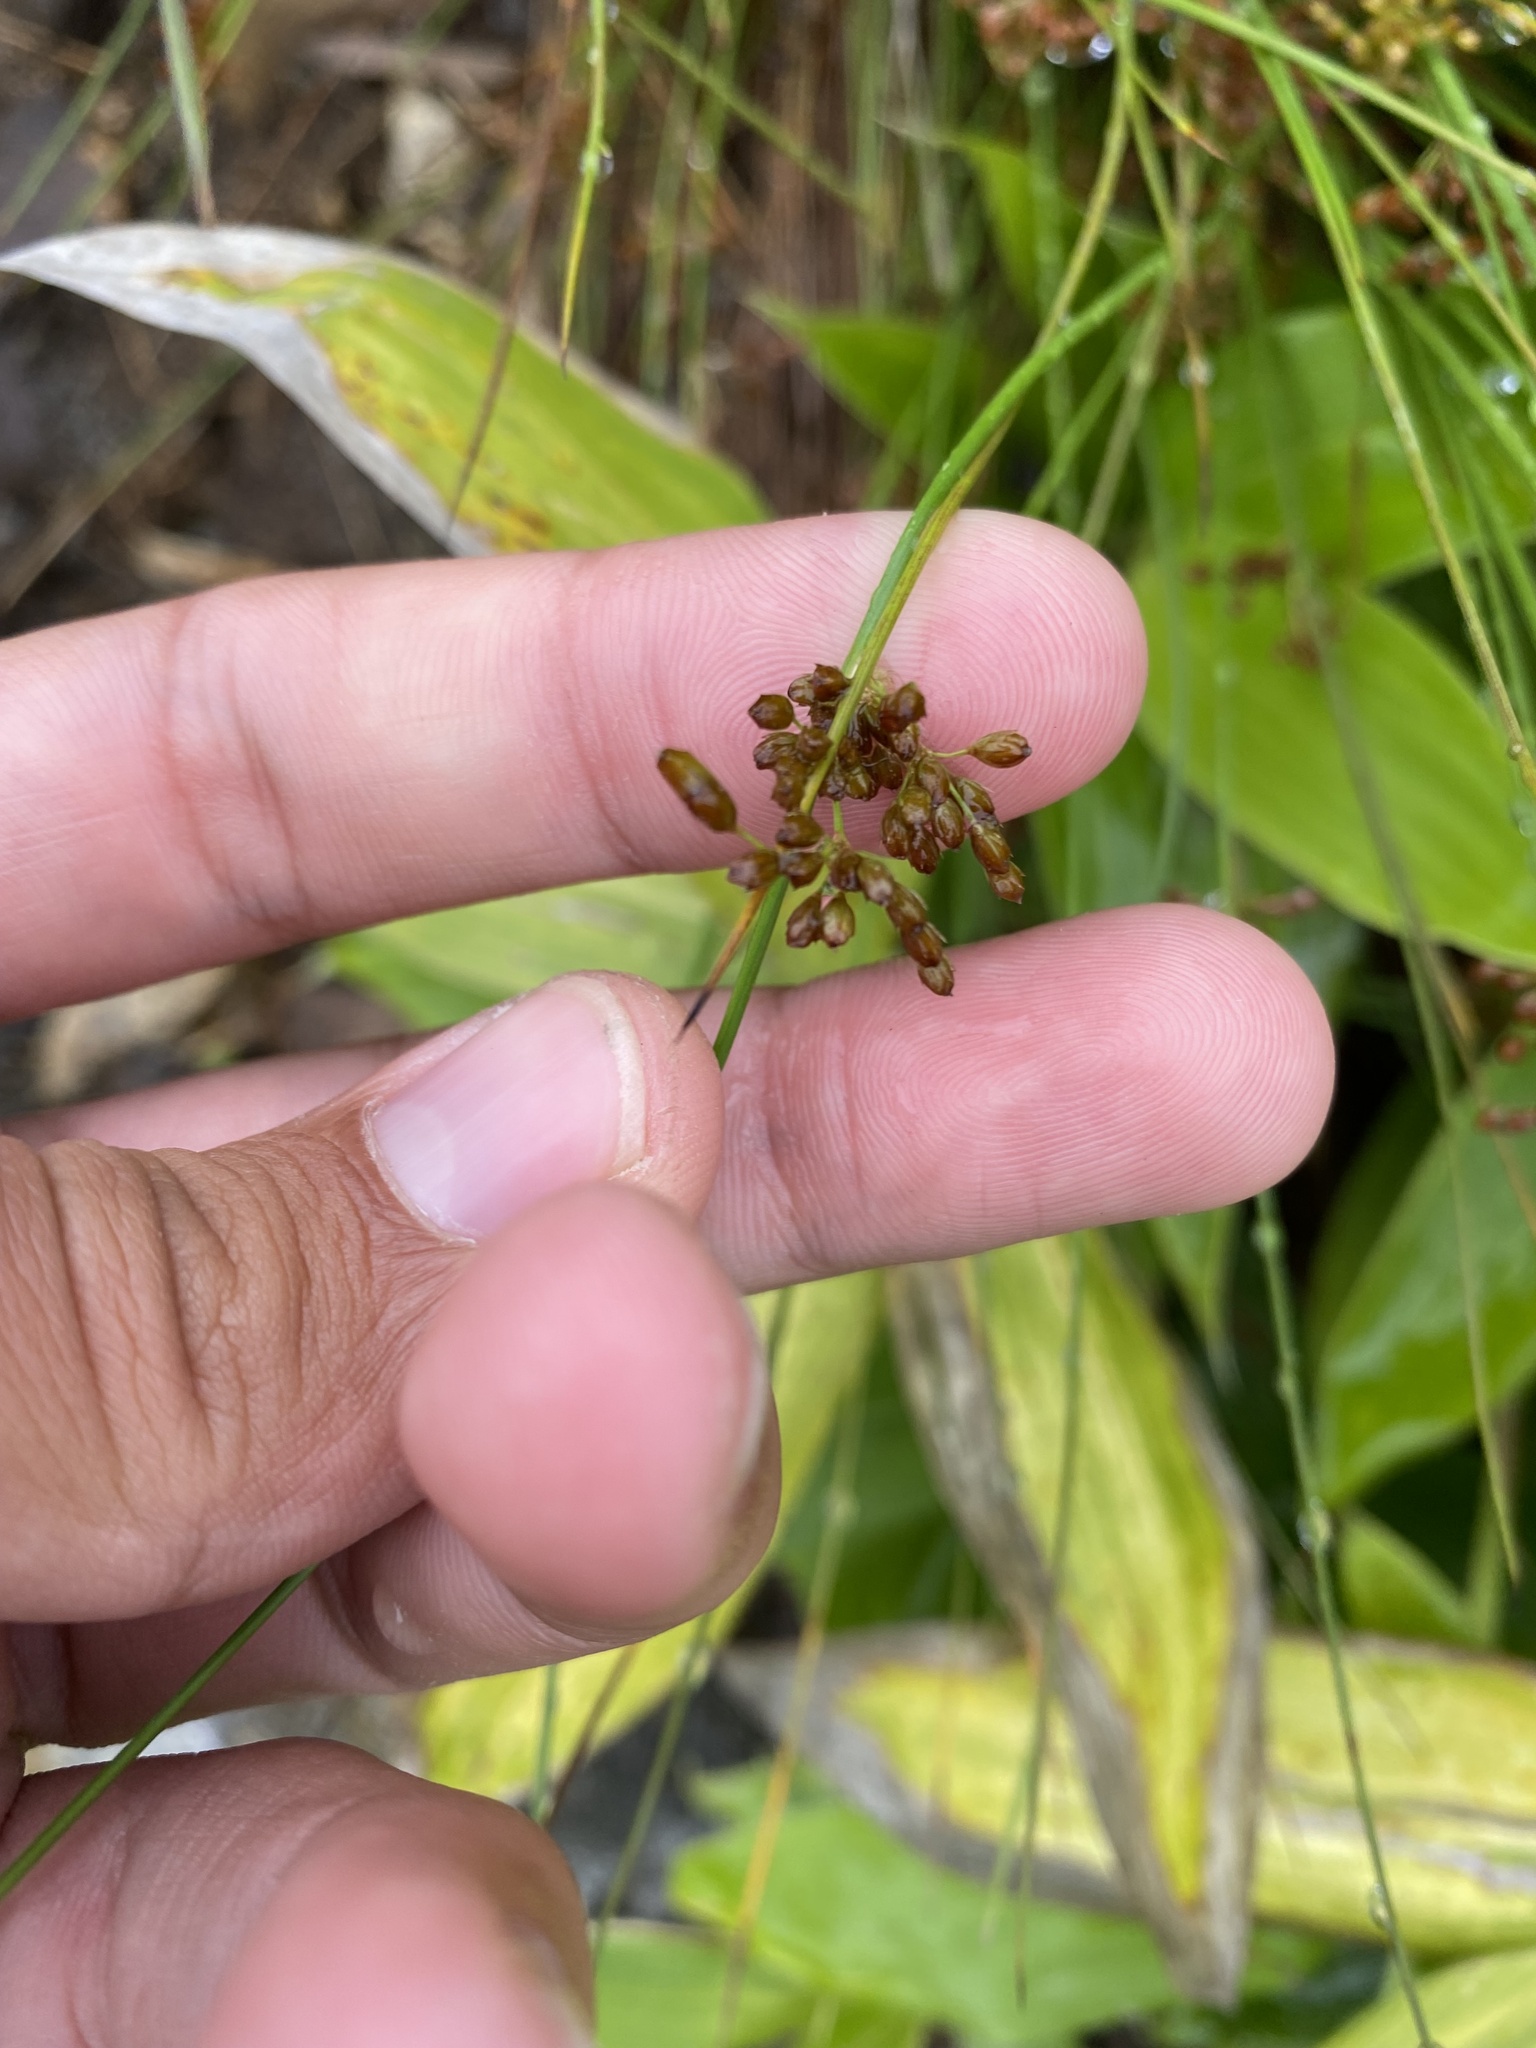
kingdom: Plantae
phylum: Tracheophyta
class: Liliopsida
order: Poales
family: Juncaceae
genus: Juncus
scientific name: Juncus decipiens
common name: Lamp rush
